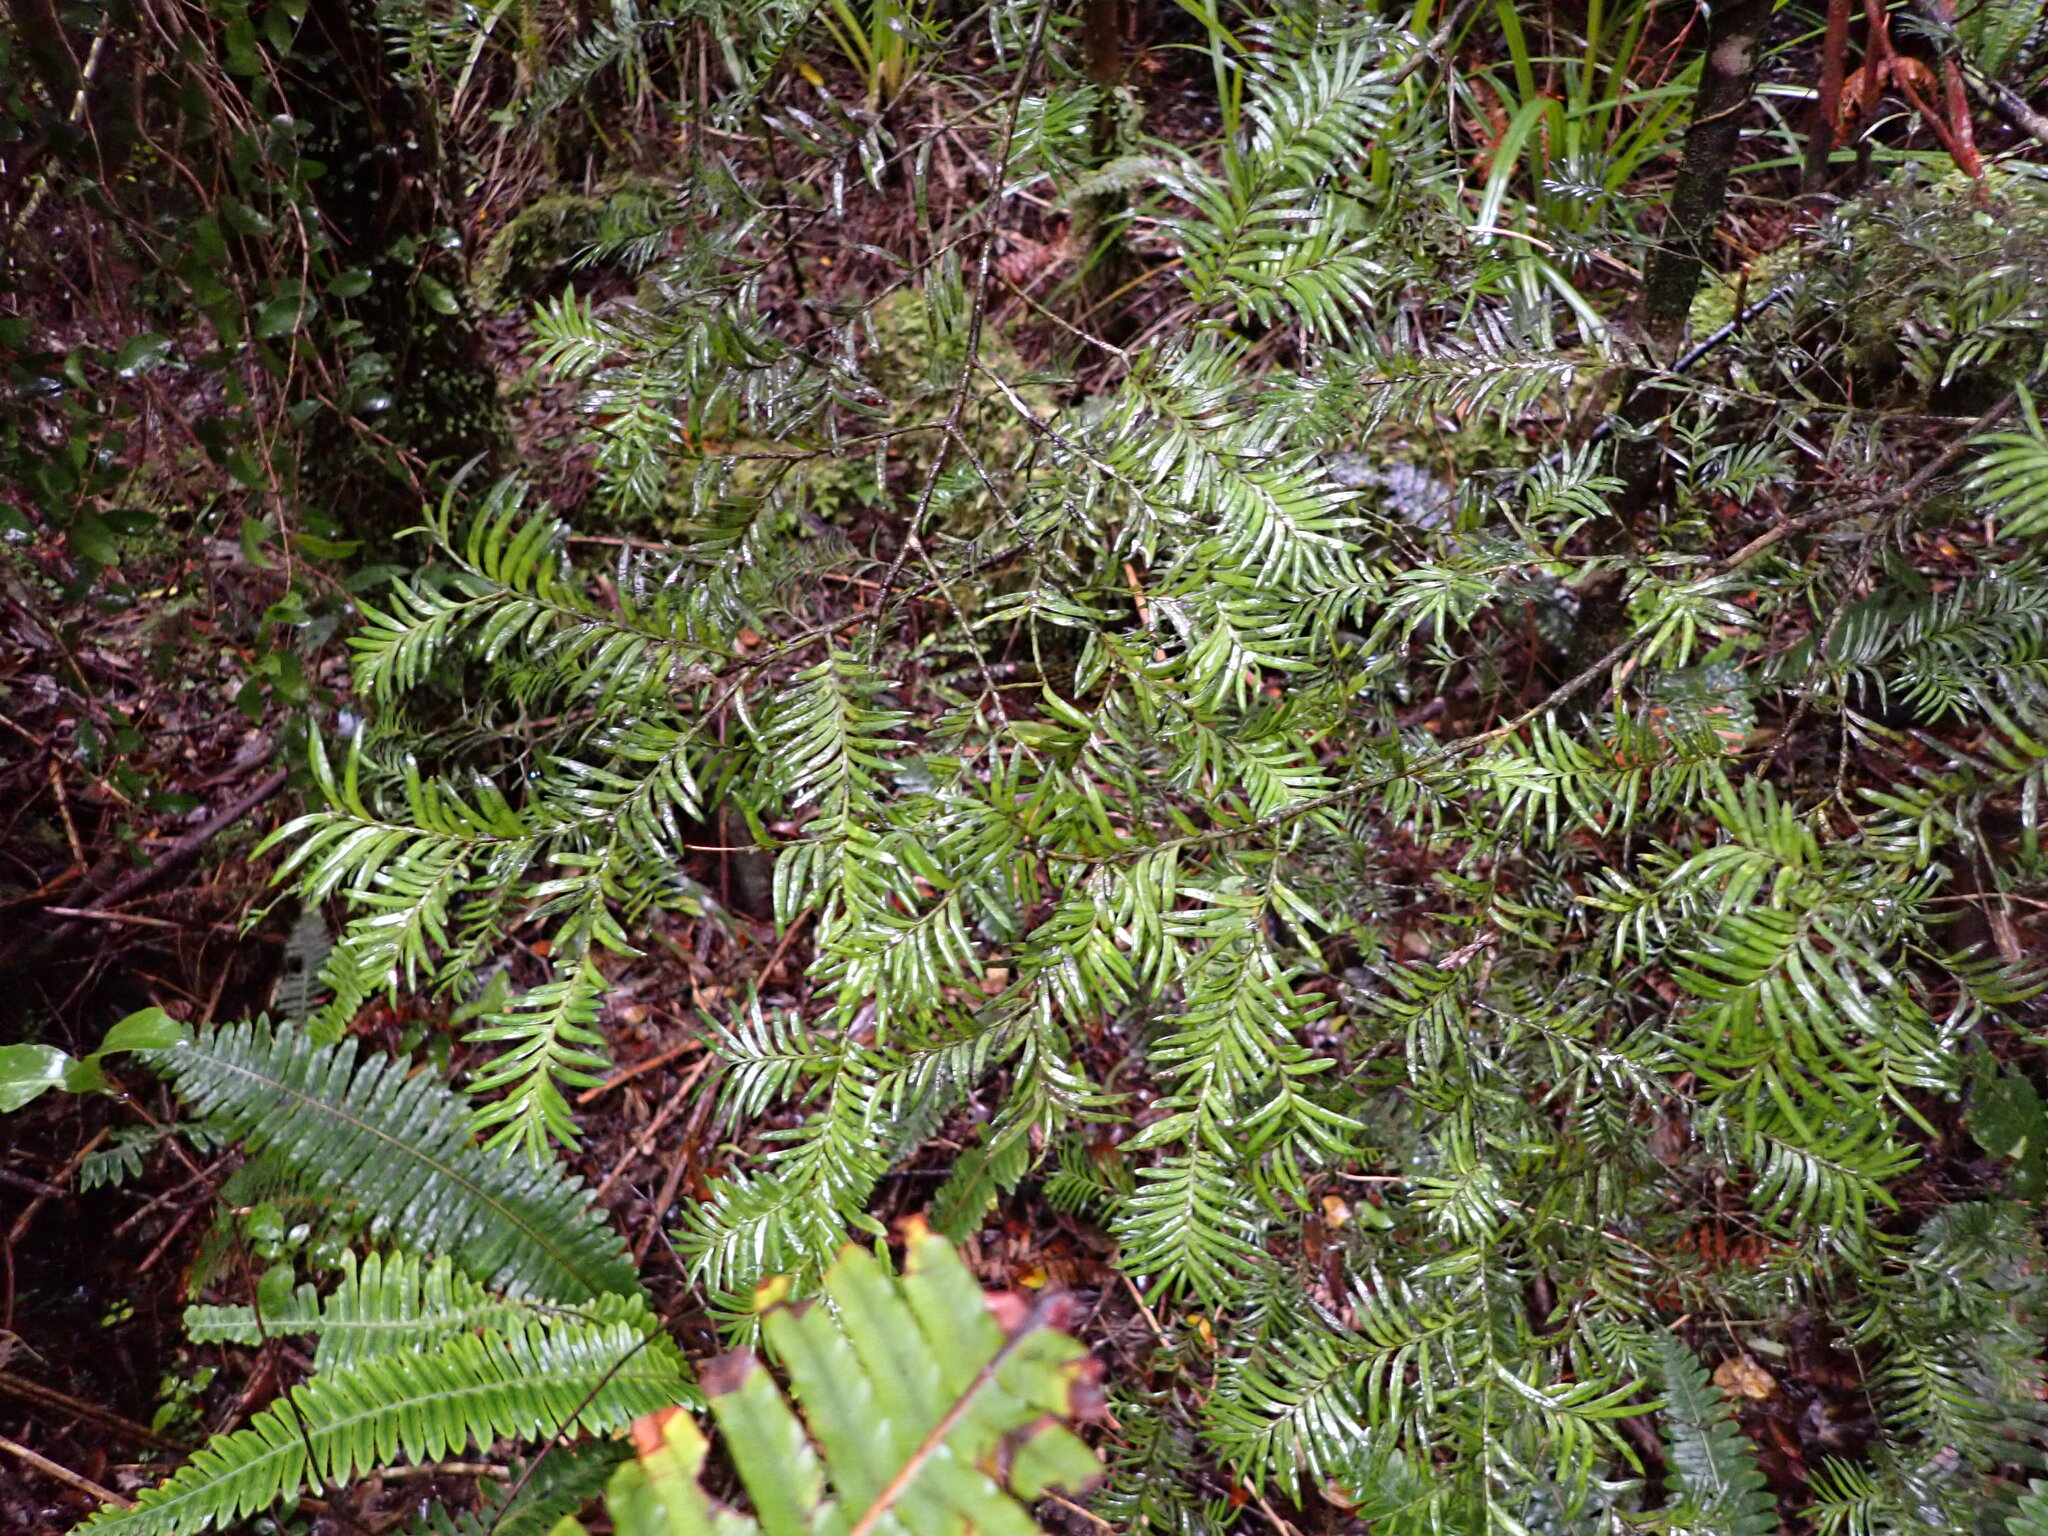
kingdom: Plantae
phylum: Tracheophyta
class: Pinopsida
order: Pinales
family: Podocarpaceae
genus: Prumnopitys
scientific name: Prumnopitys ferruginea
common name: Brown pine
